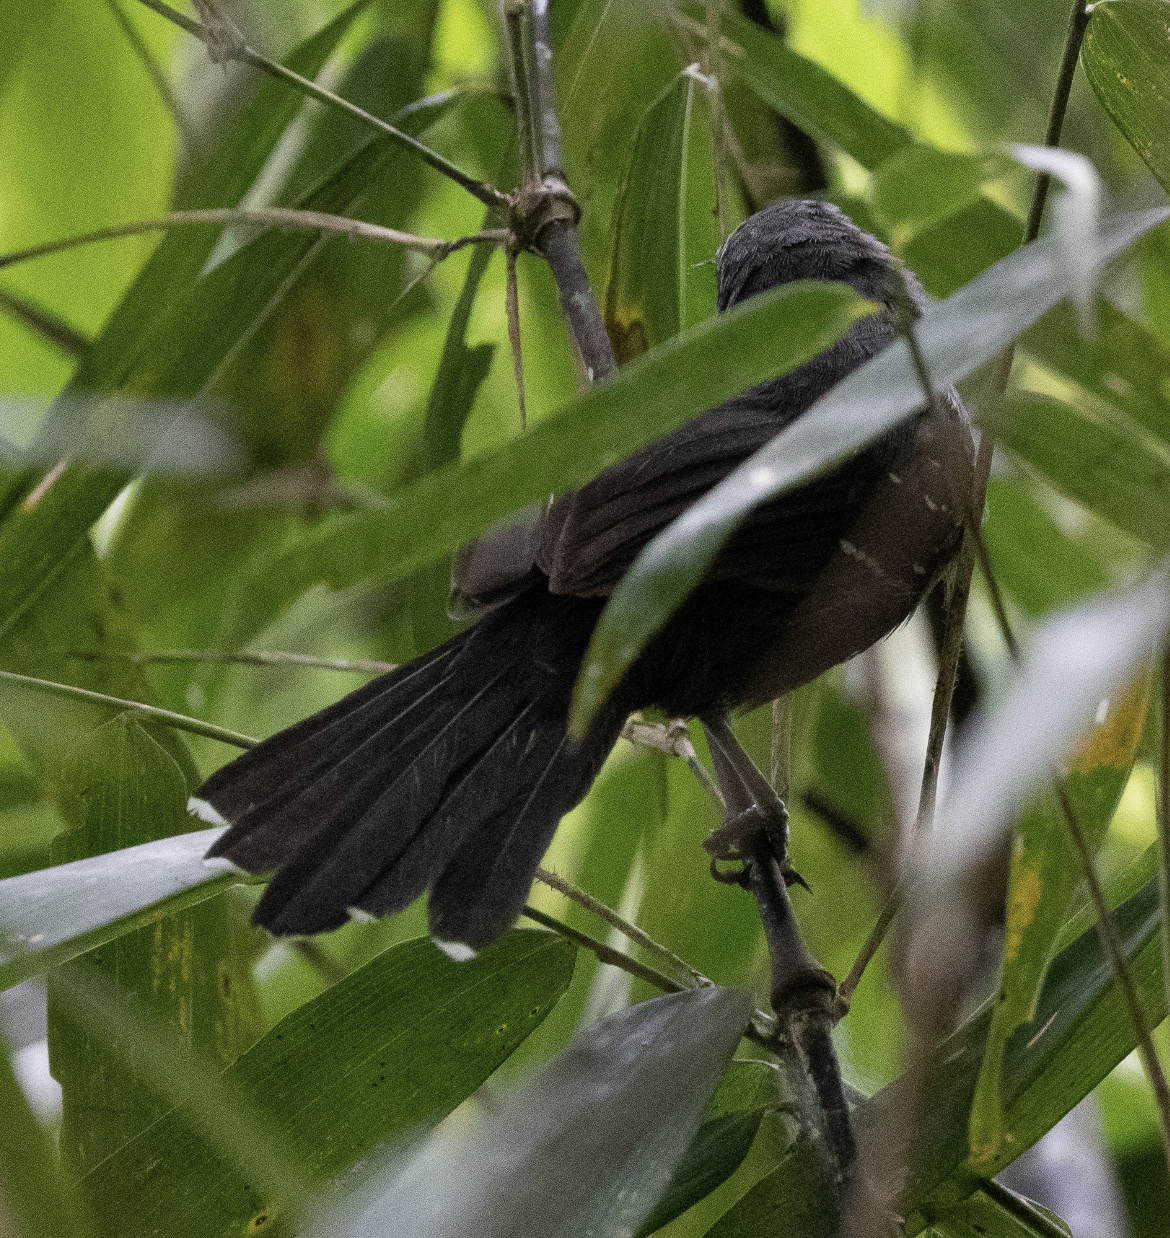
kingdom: Animalia
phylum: Chordata
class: Aves
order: Passeriformes
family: Thamnophilidae
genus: Cercomacra
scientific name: Cercomacra manu
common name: Manu antbird
